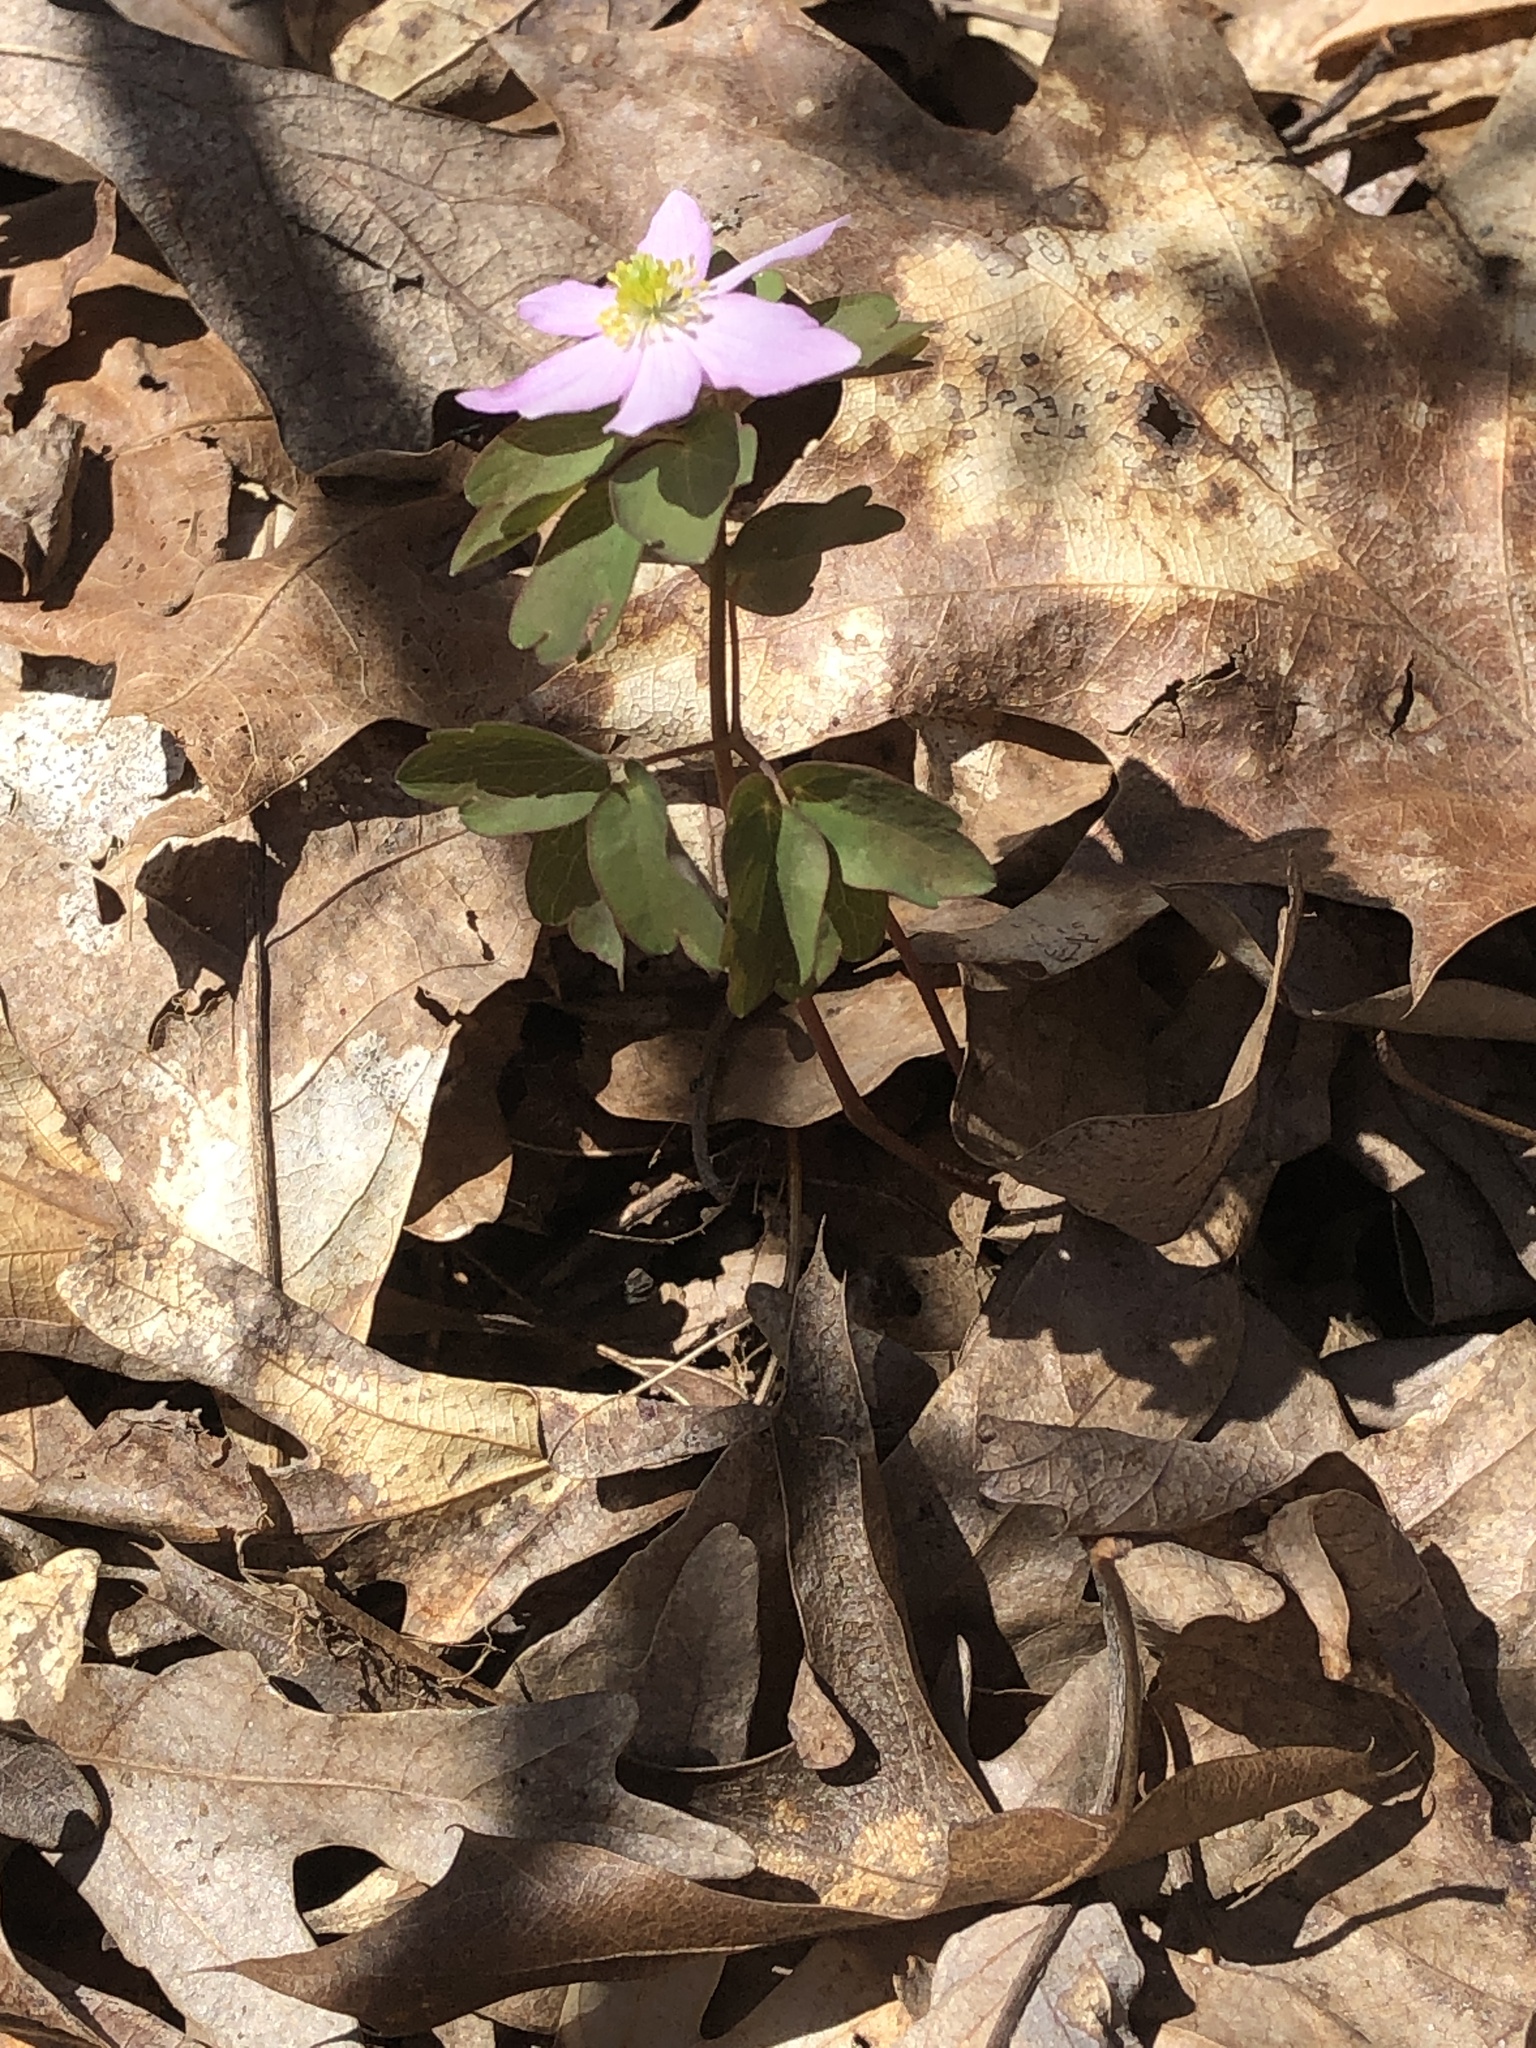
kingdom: Plantae
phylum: Tracheophyta
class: Magnoliopsida
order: Ranunculales
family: Ranunculaceae
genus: Thalictrum
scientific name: Thalictrum thalictroides
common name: Rue-anemone
